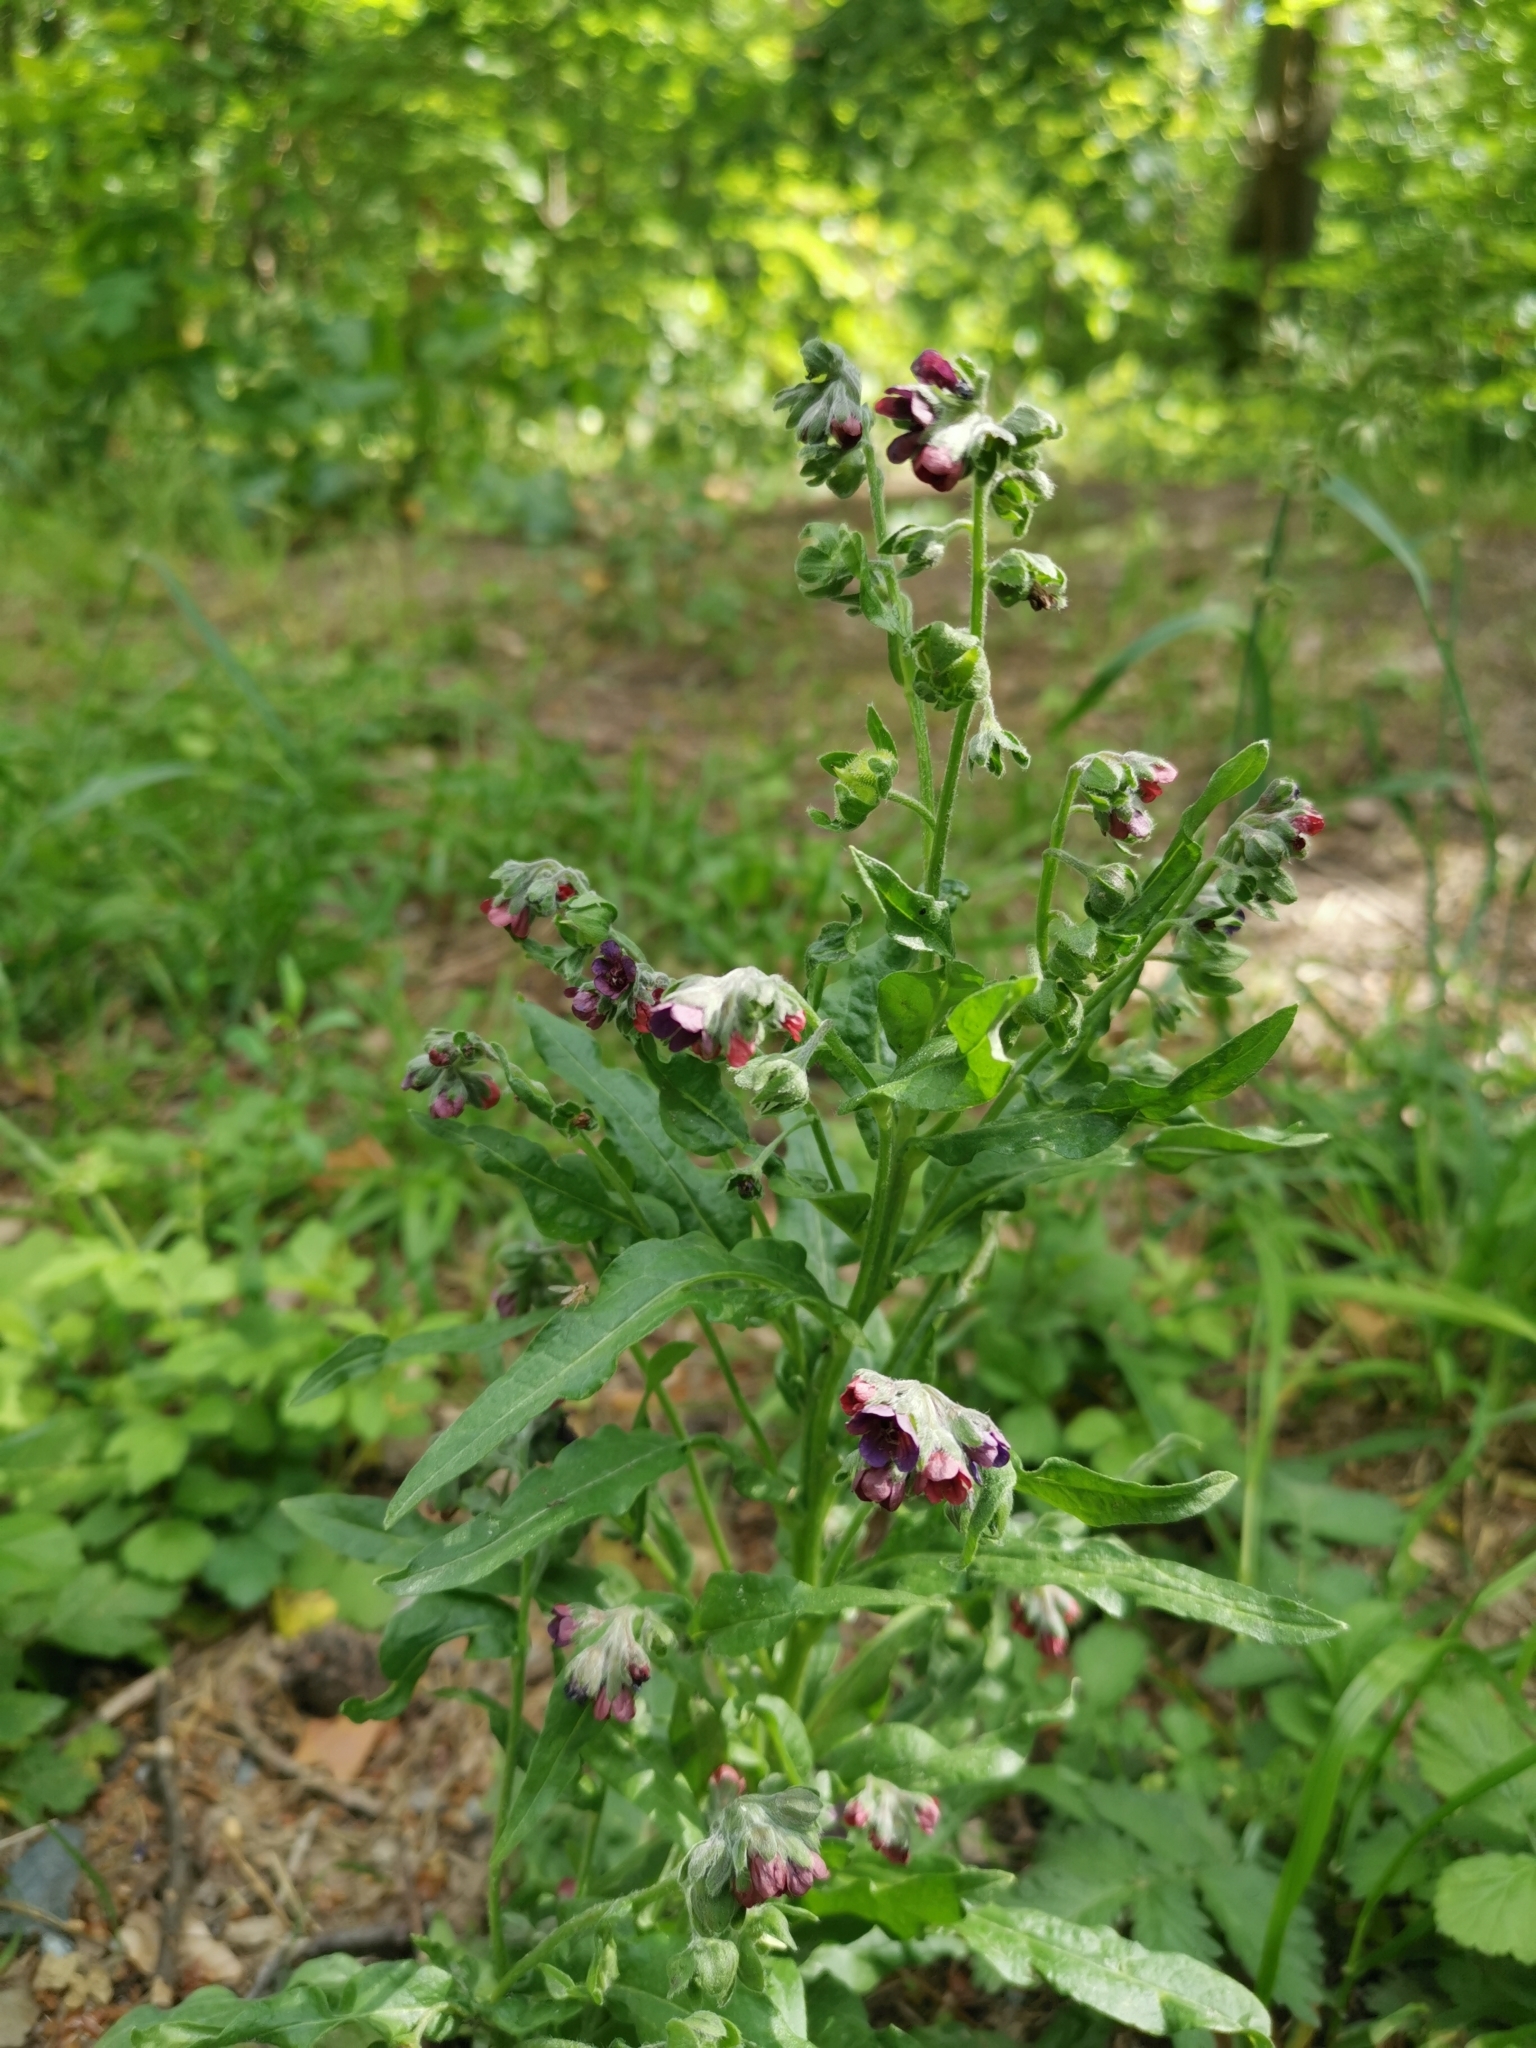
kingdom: Plantae
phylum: Tracheophyta
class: Magnoliopsida
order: Boraginales
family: Boraginaceae
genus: Cynoglossum
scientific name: Cynoglossum officinale
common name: Hound's-tongue
